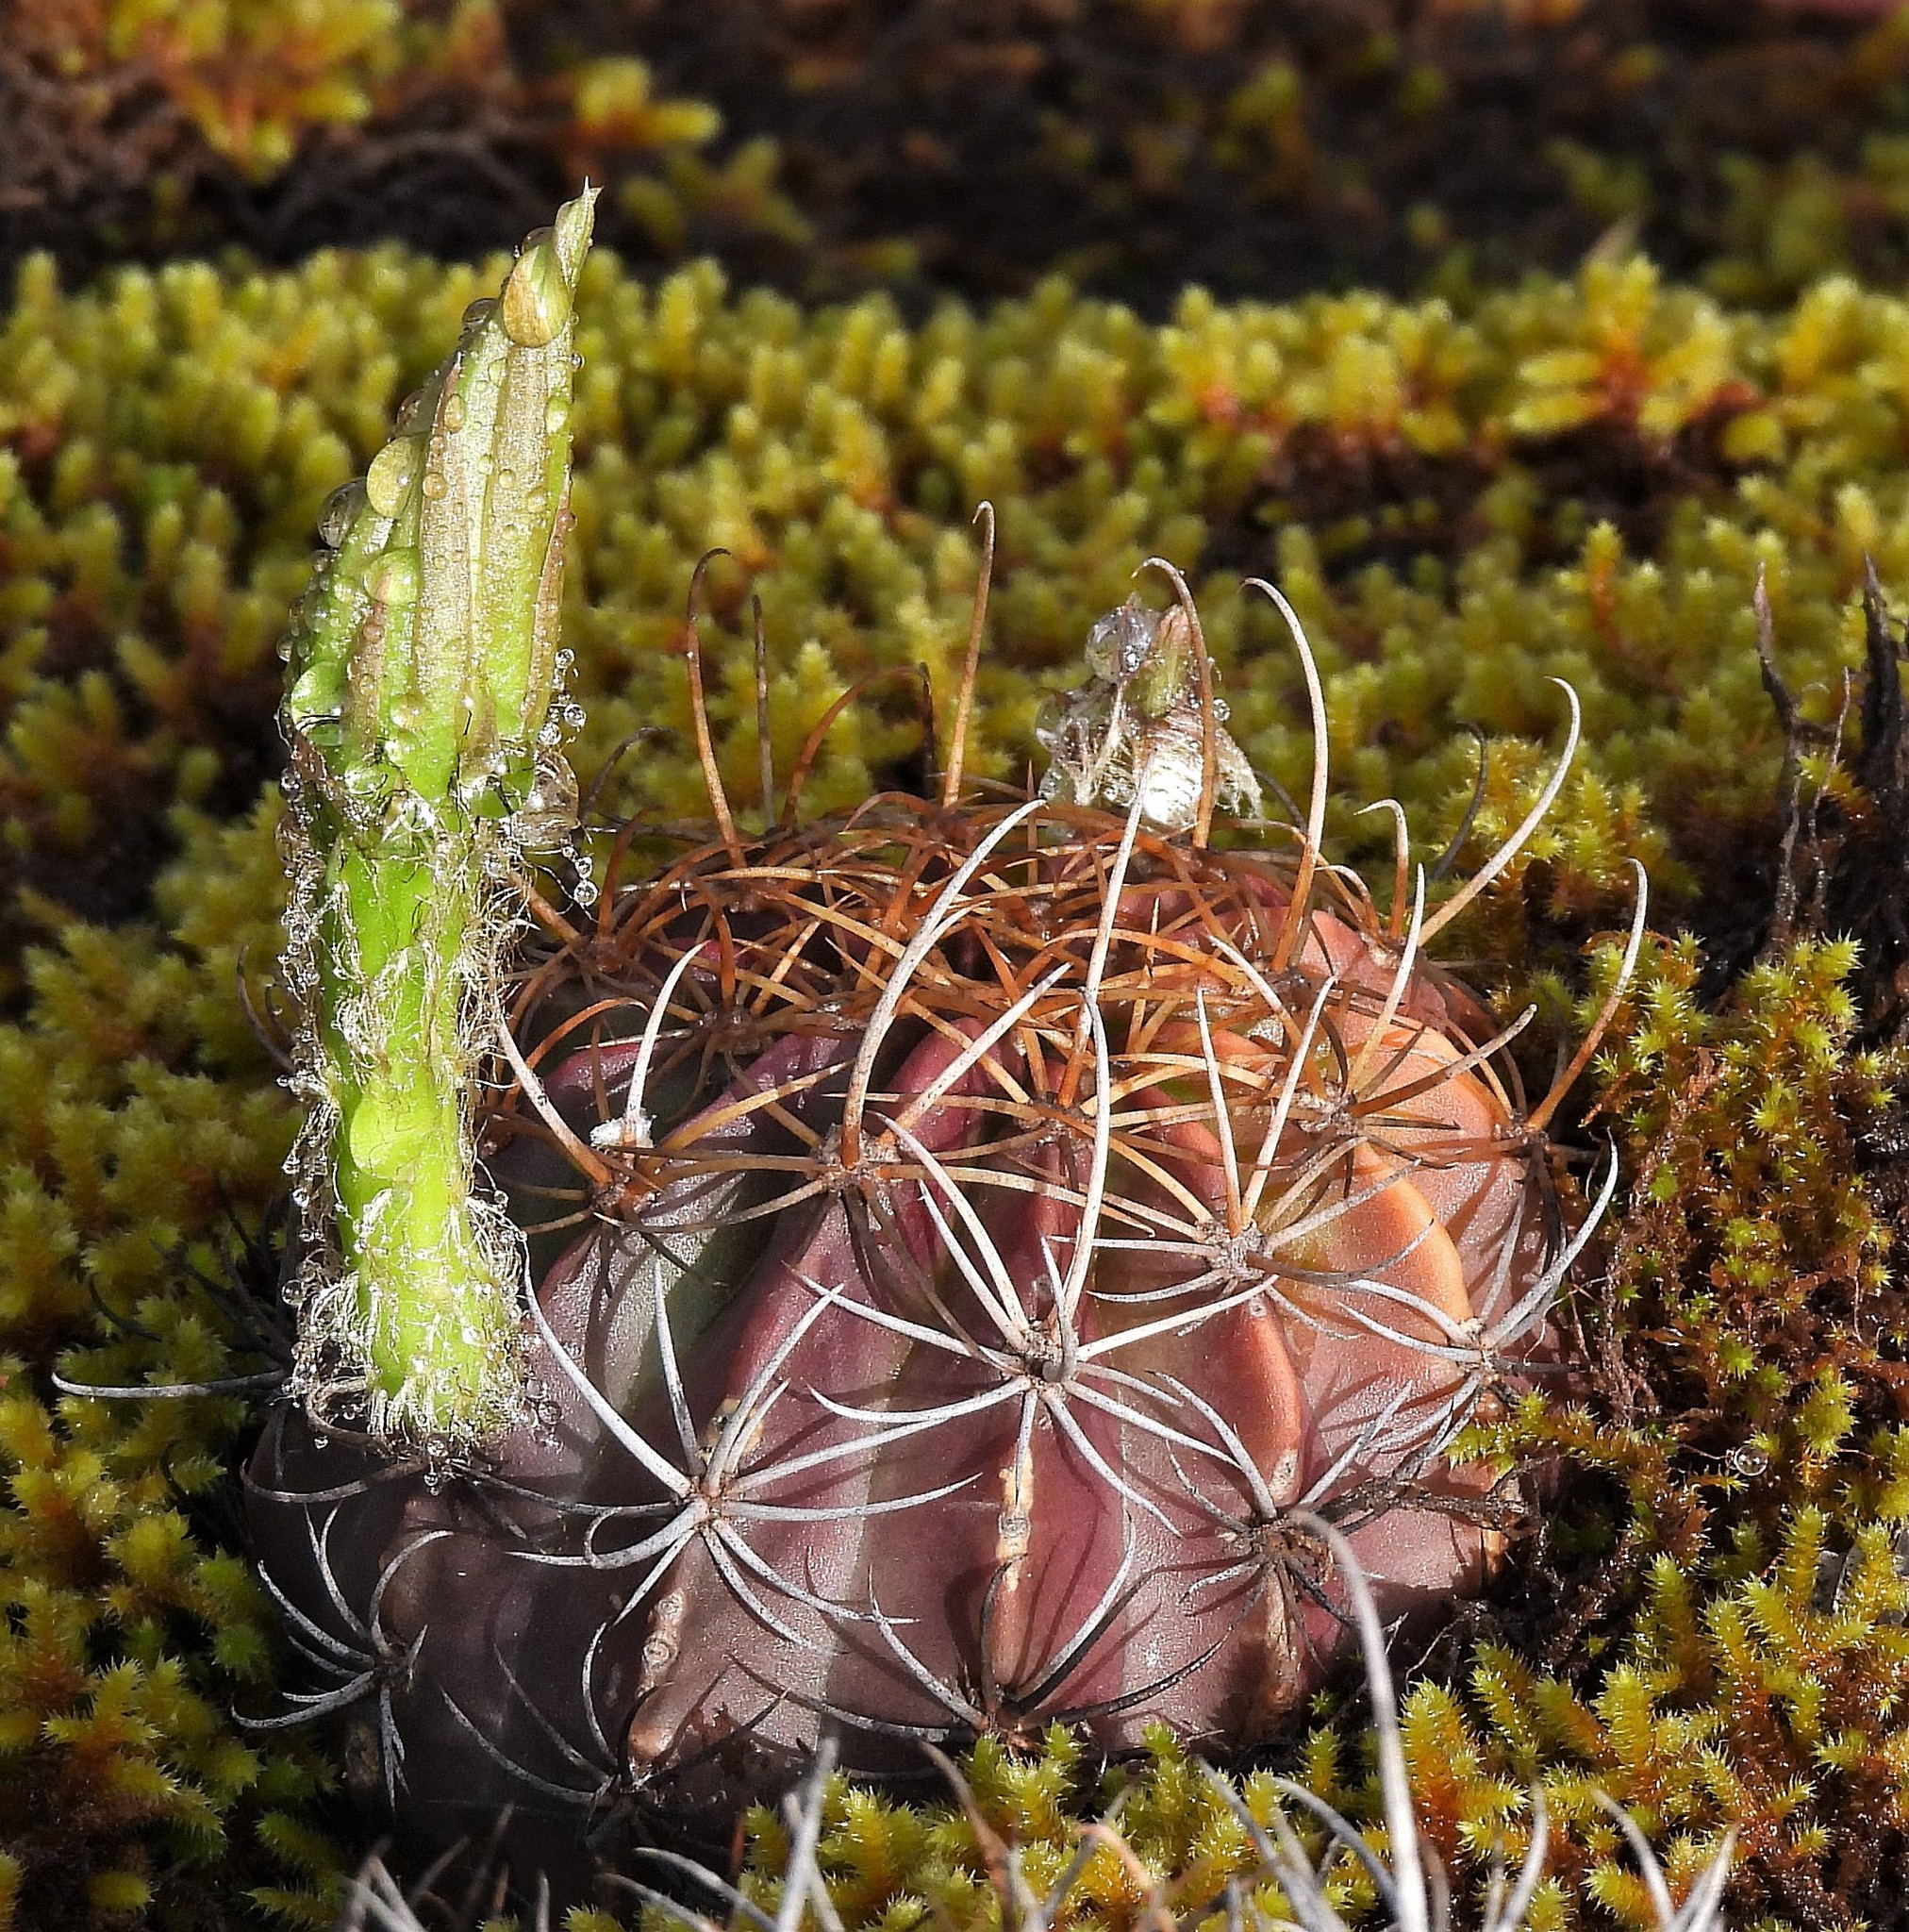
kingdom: Plantae
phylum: Tracheophyta
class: Magnoliopsida
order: Caryophyllales
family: Cactaceae
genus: Lobivia
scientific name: Lobivia ancistrophora
